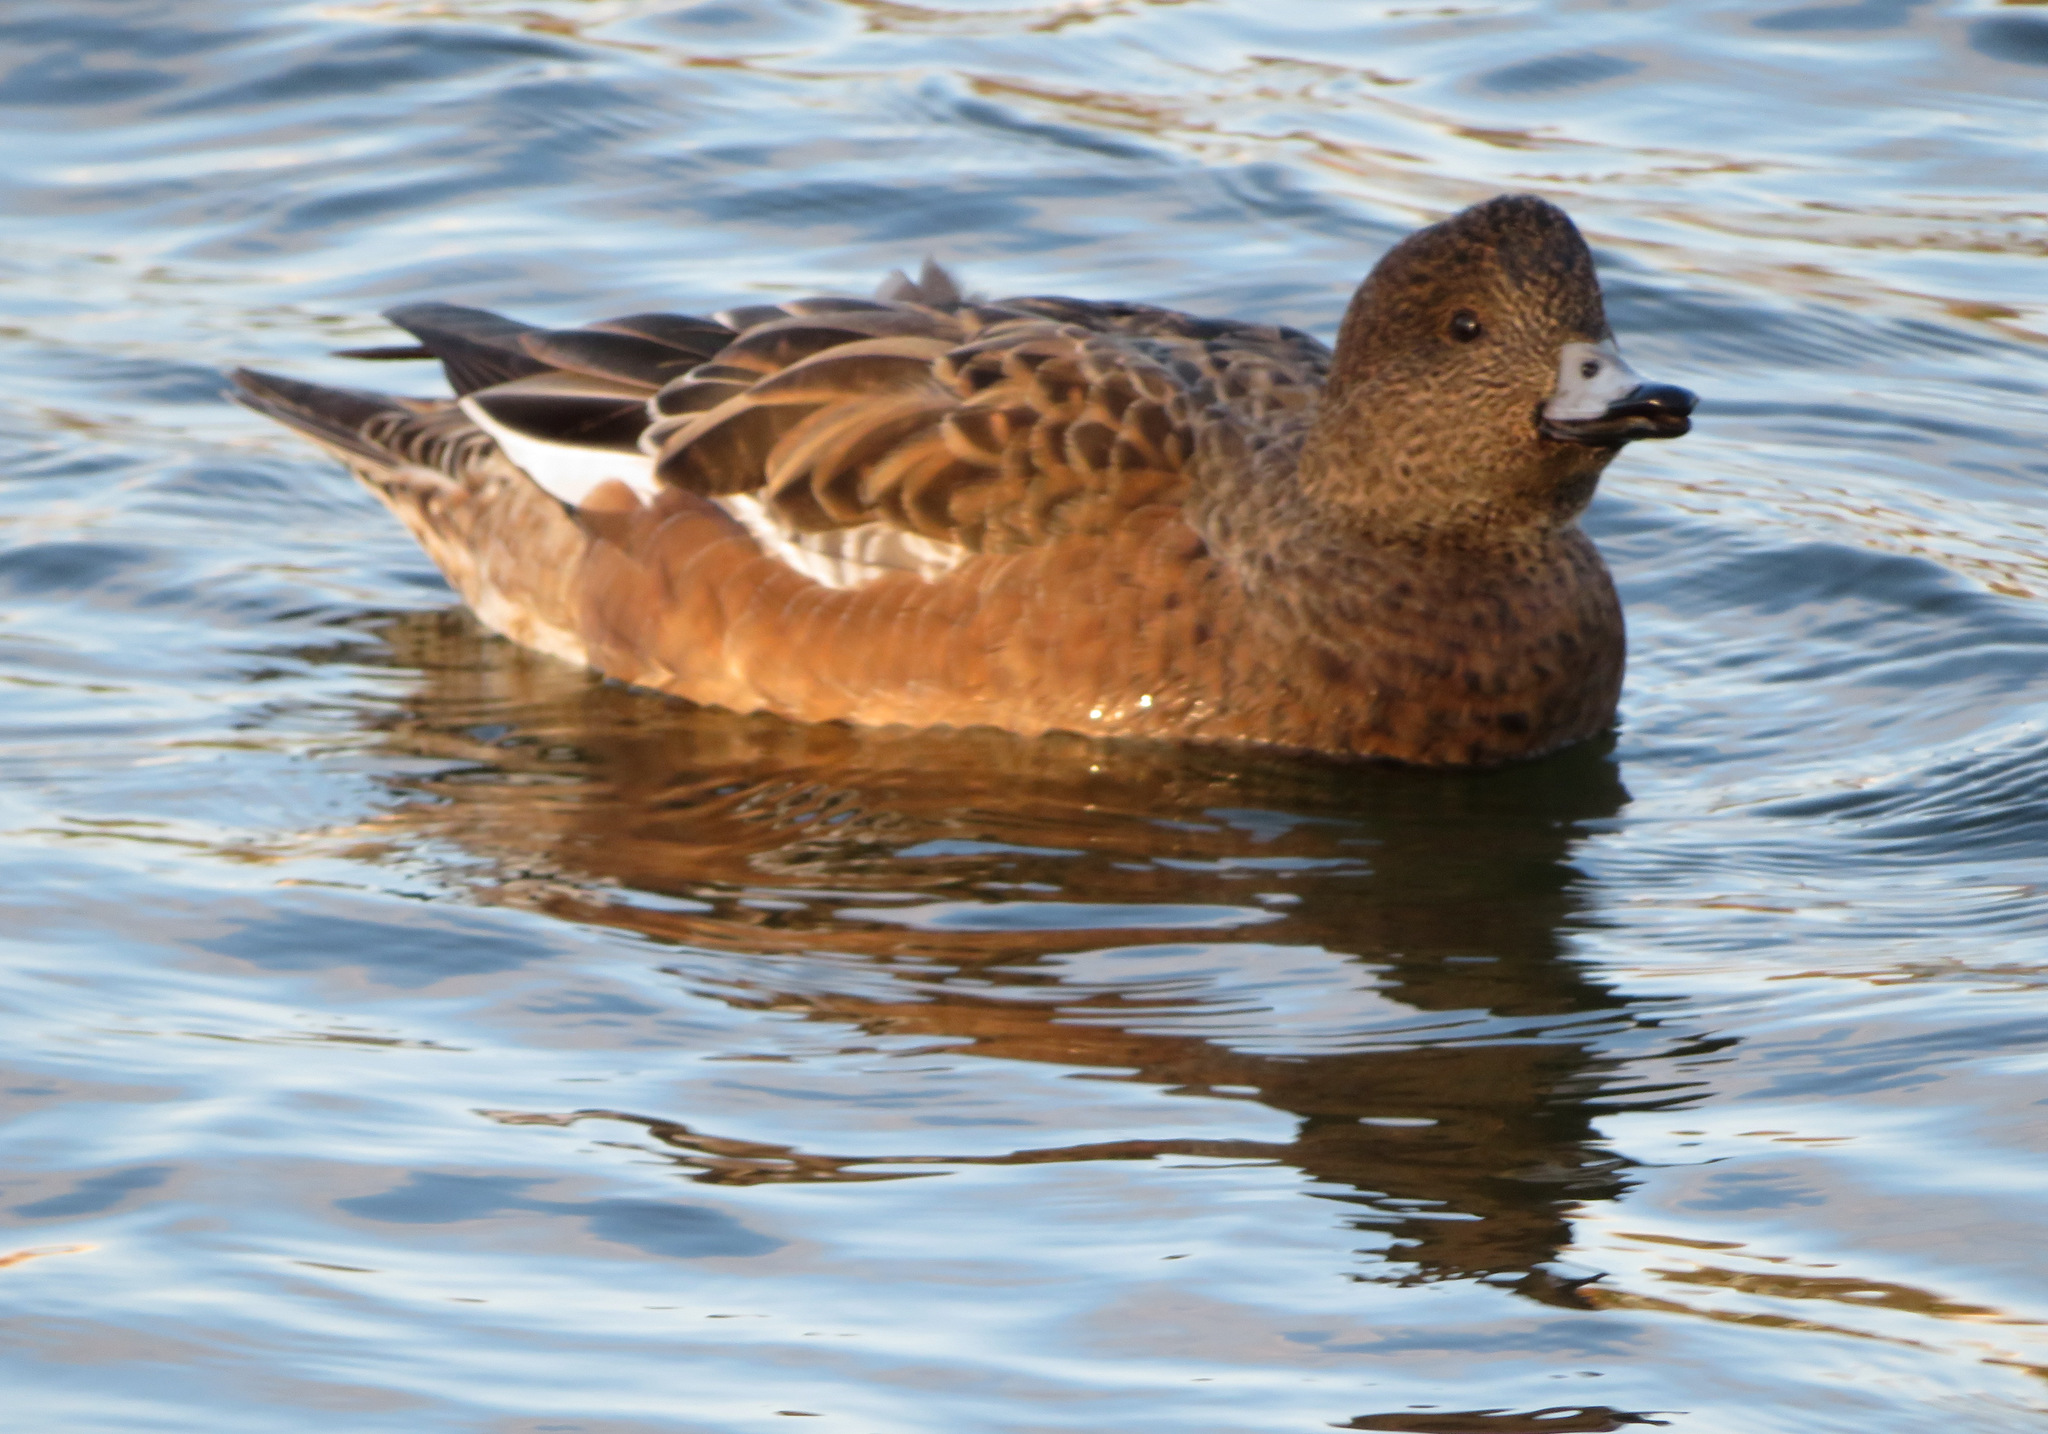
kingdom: Animalia
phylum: Chordata
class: Aves
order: Anseriformes
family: Anatidae
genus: Mareca
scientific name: Mareca penelope
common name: Eurasian wigeon
